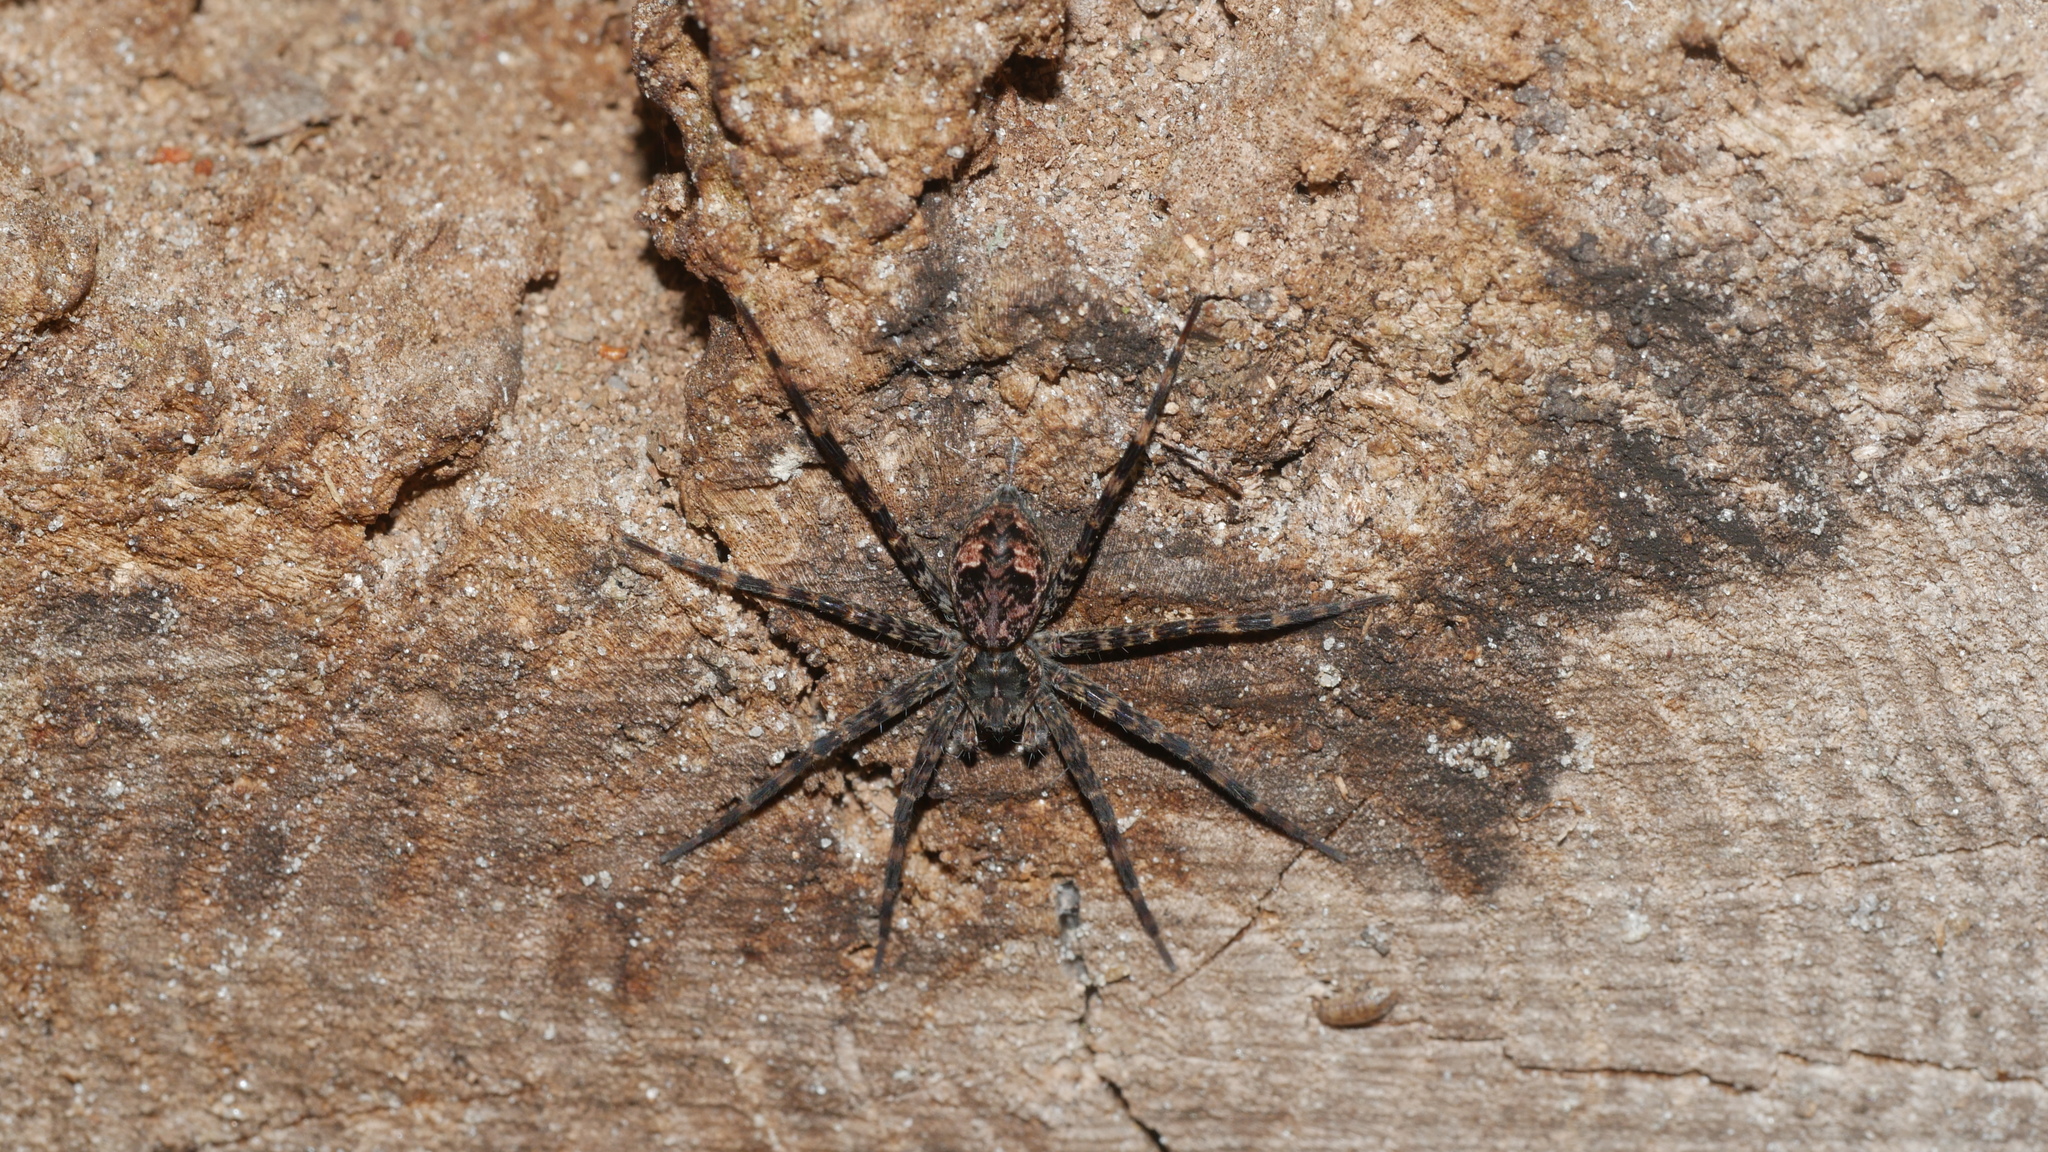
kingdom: Animalia
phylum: Arthropoda
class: Arachnida
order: Araneae
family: Pisauridae
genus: Dolomedes
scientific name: Dolomedes tenebrosus
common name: Dark fishing spider
